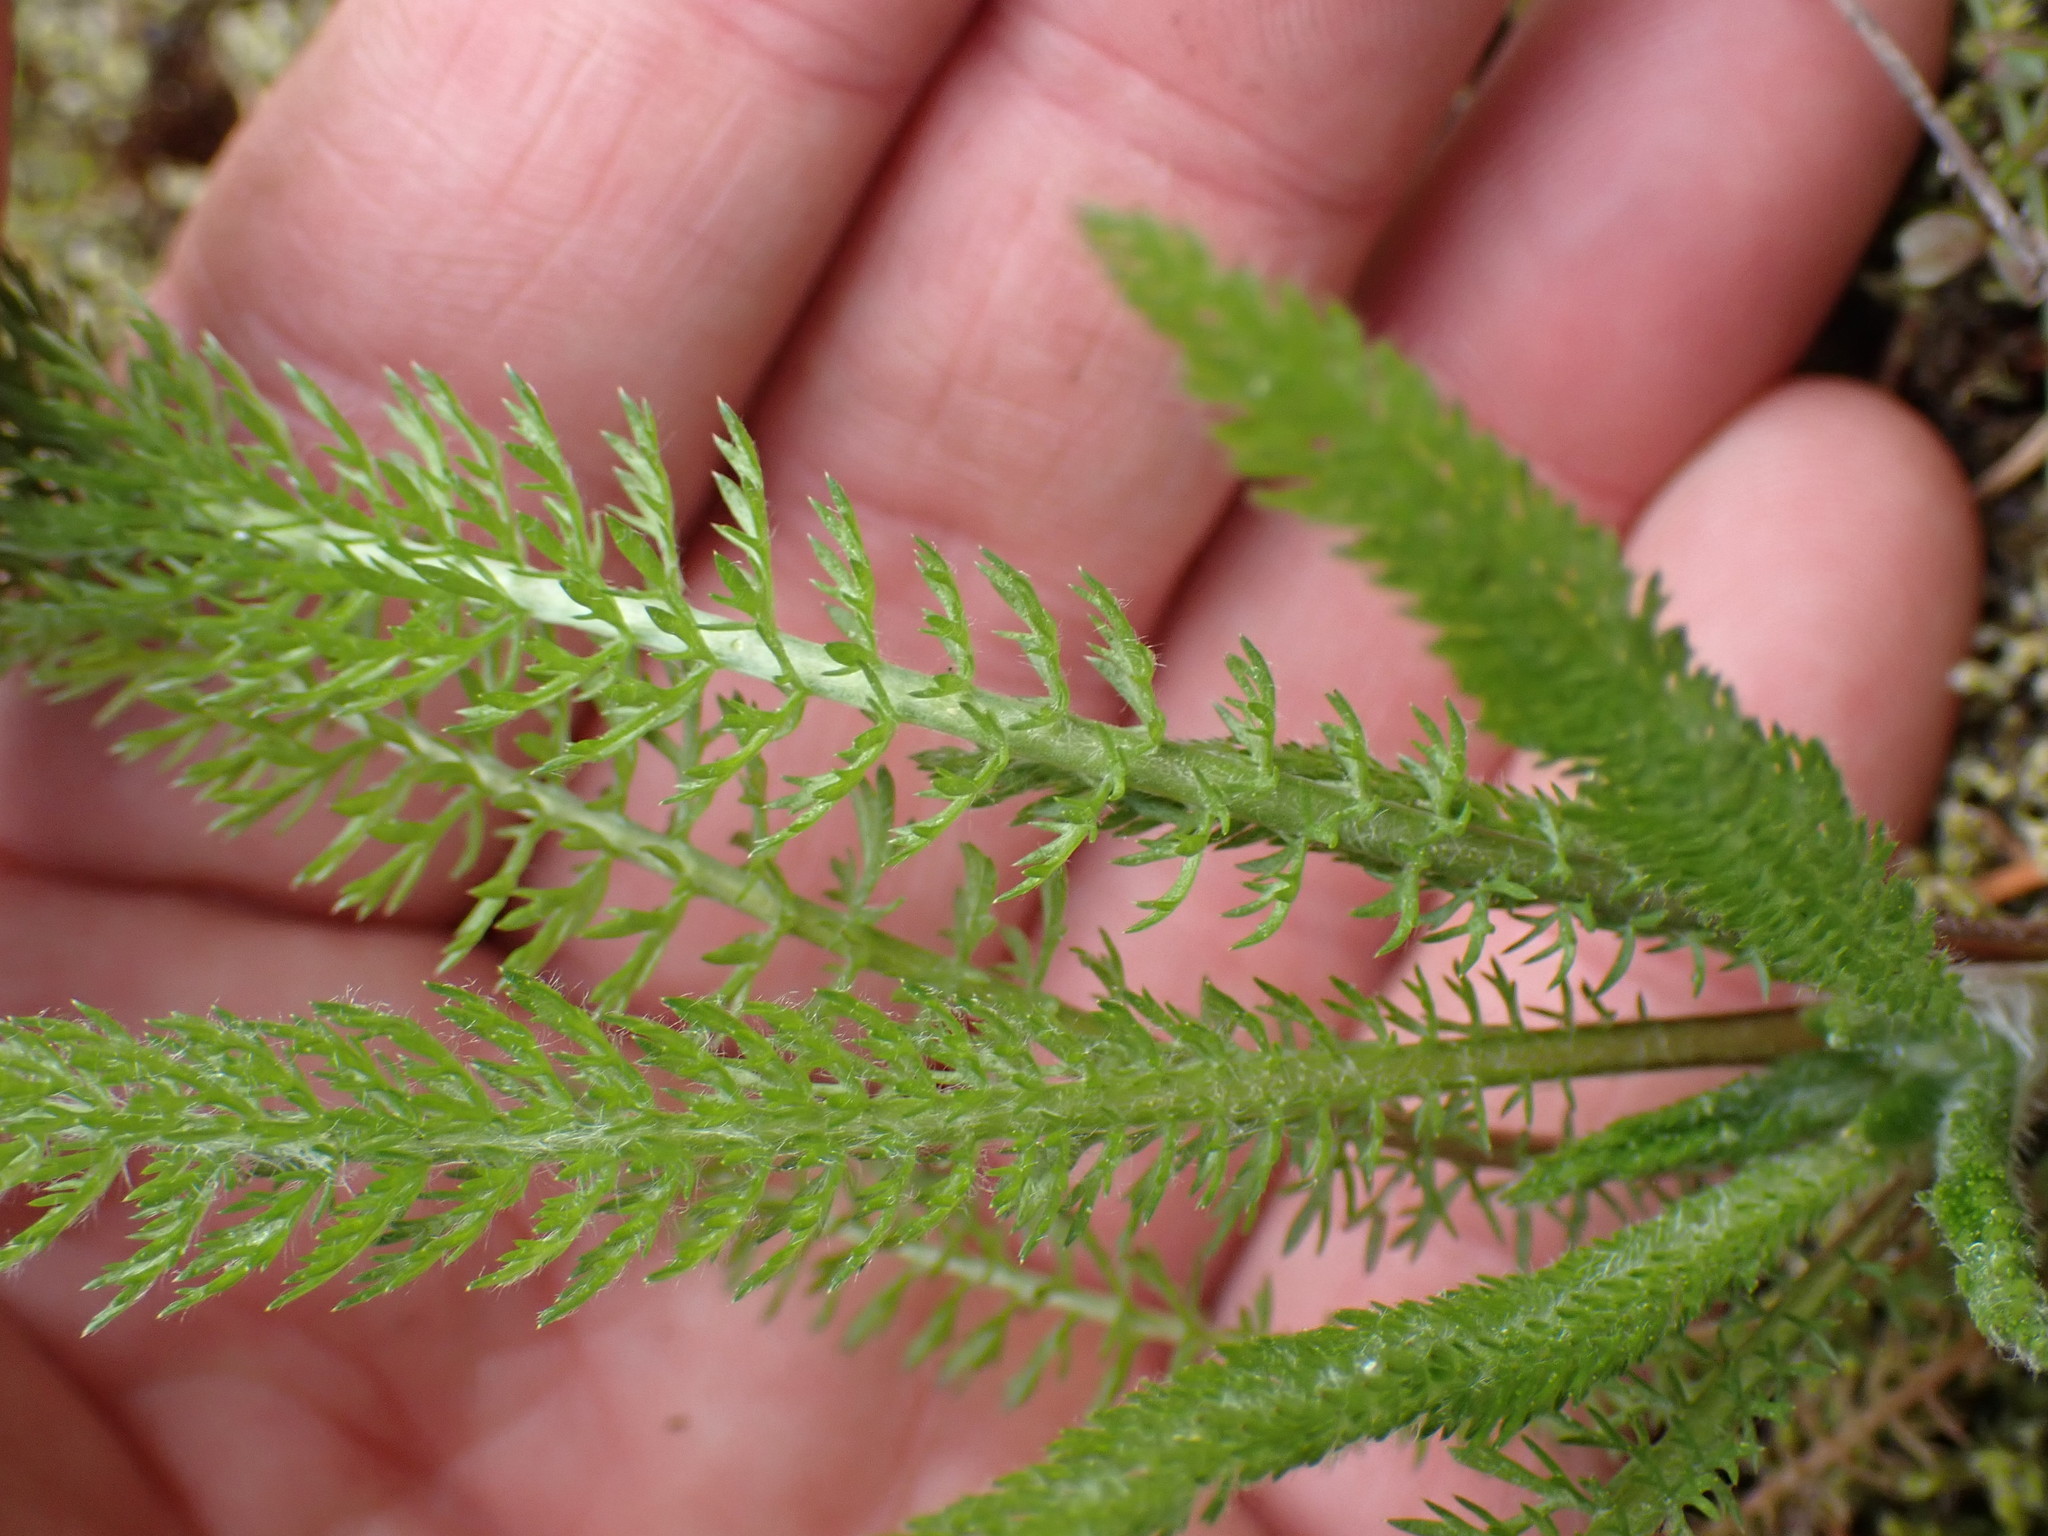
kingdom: Plantae
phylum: Tracheophyta
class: Magnoliopsida
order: Asterales
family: Asteraceae
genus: Achillea
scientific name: Achillea millefolium
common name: Yarrow
